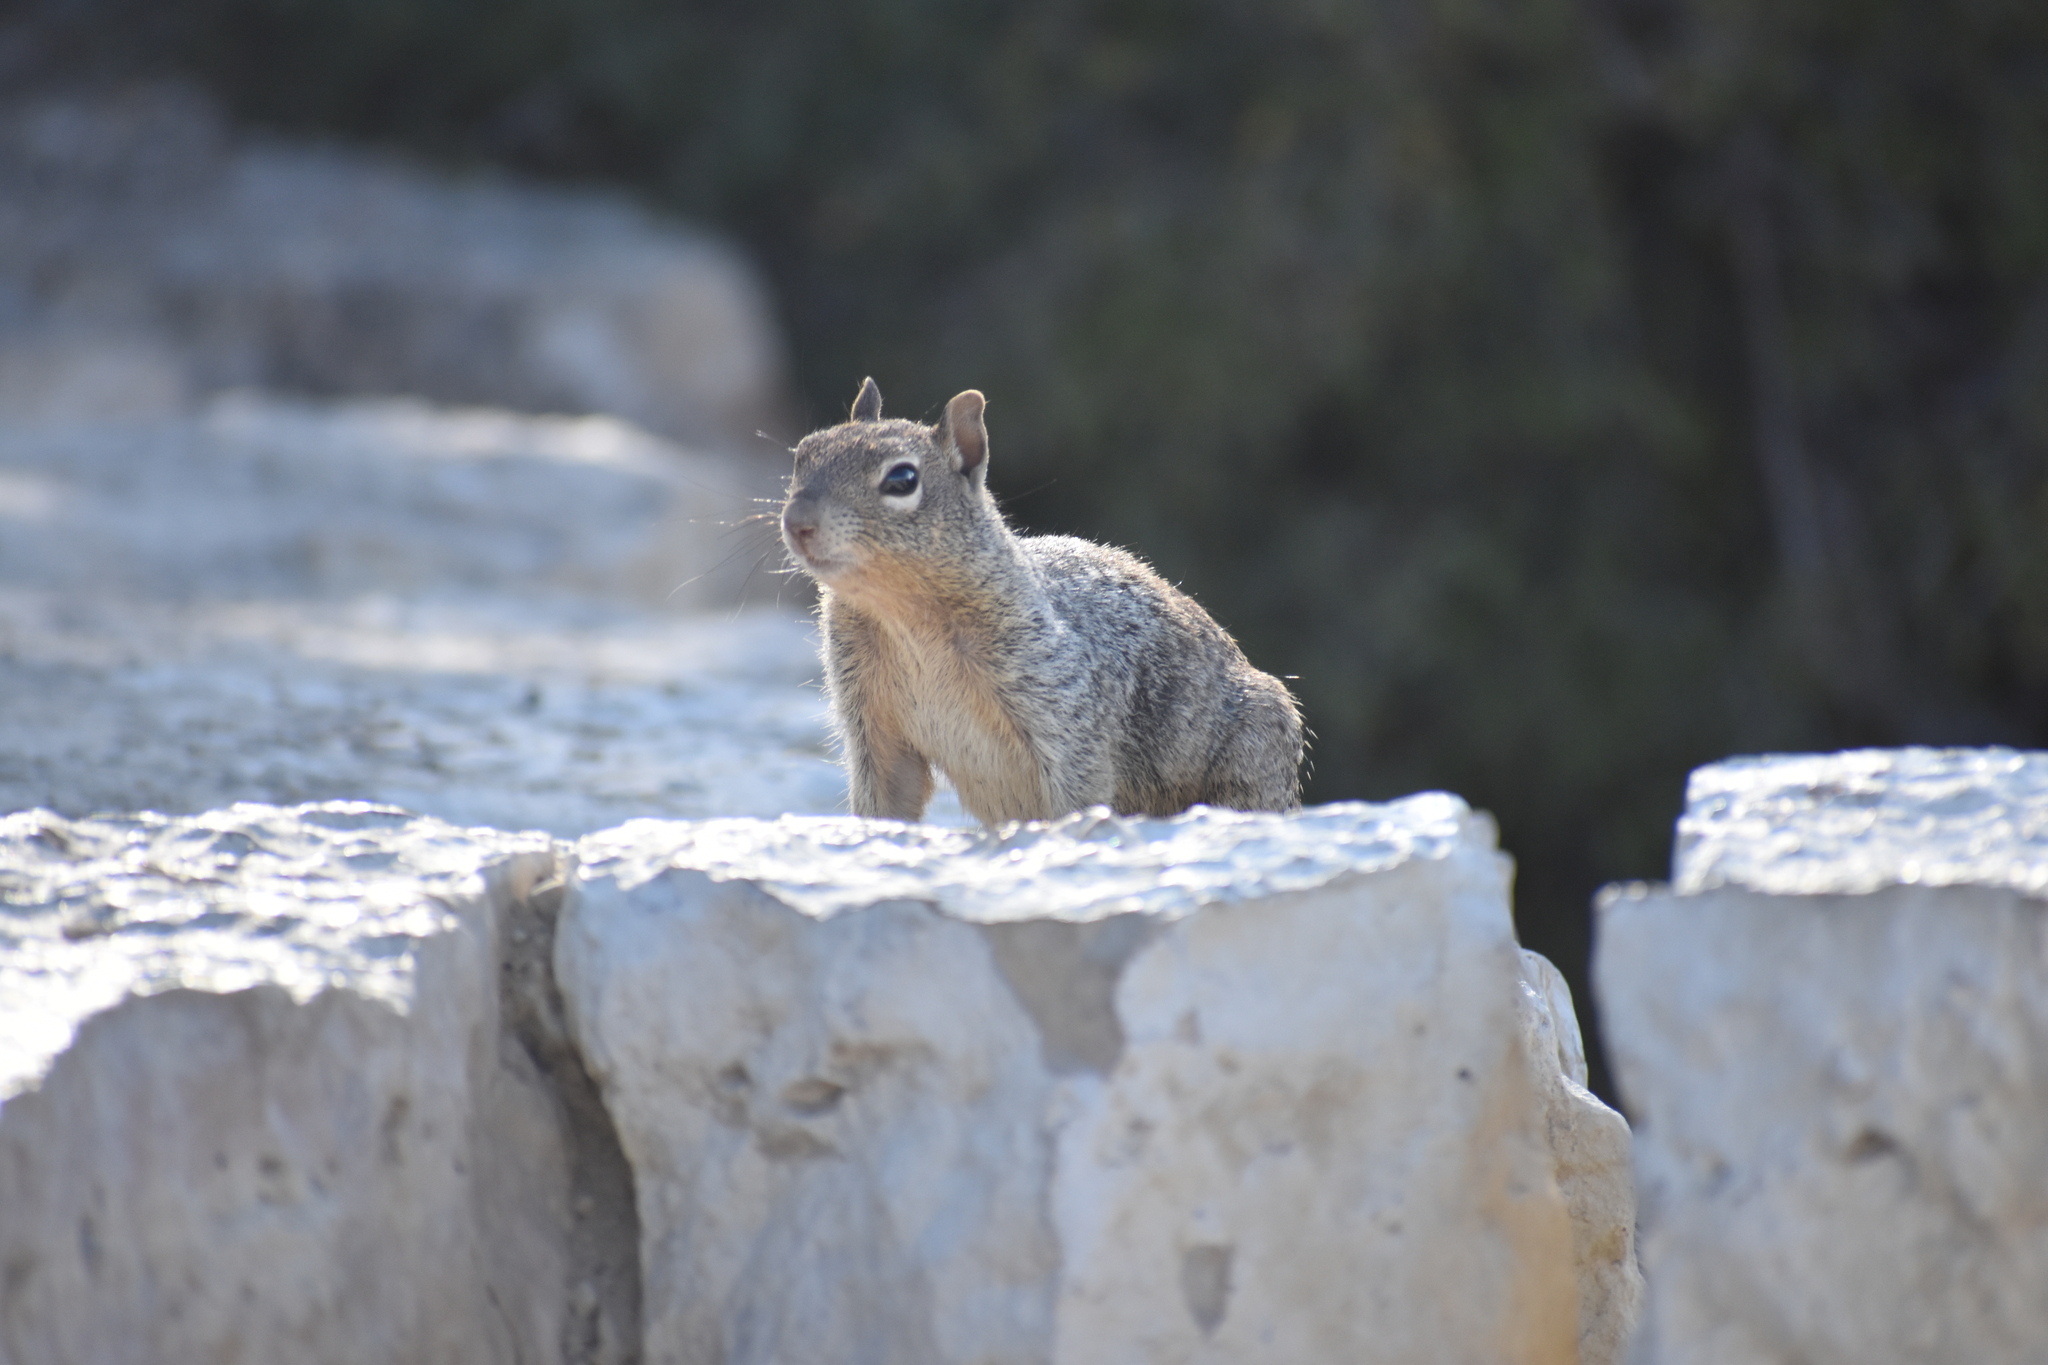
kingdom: Animalia
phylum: Chordata
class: Mammalia
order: Rodentia
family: Sciuridae
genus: Otospermophilus
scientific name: Otospermophilus variegatus
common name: Rock squirrel
